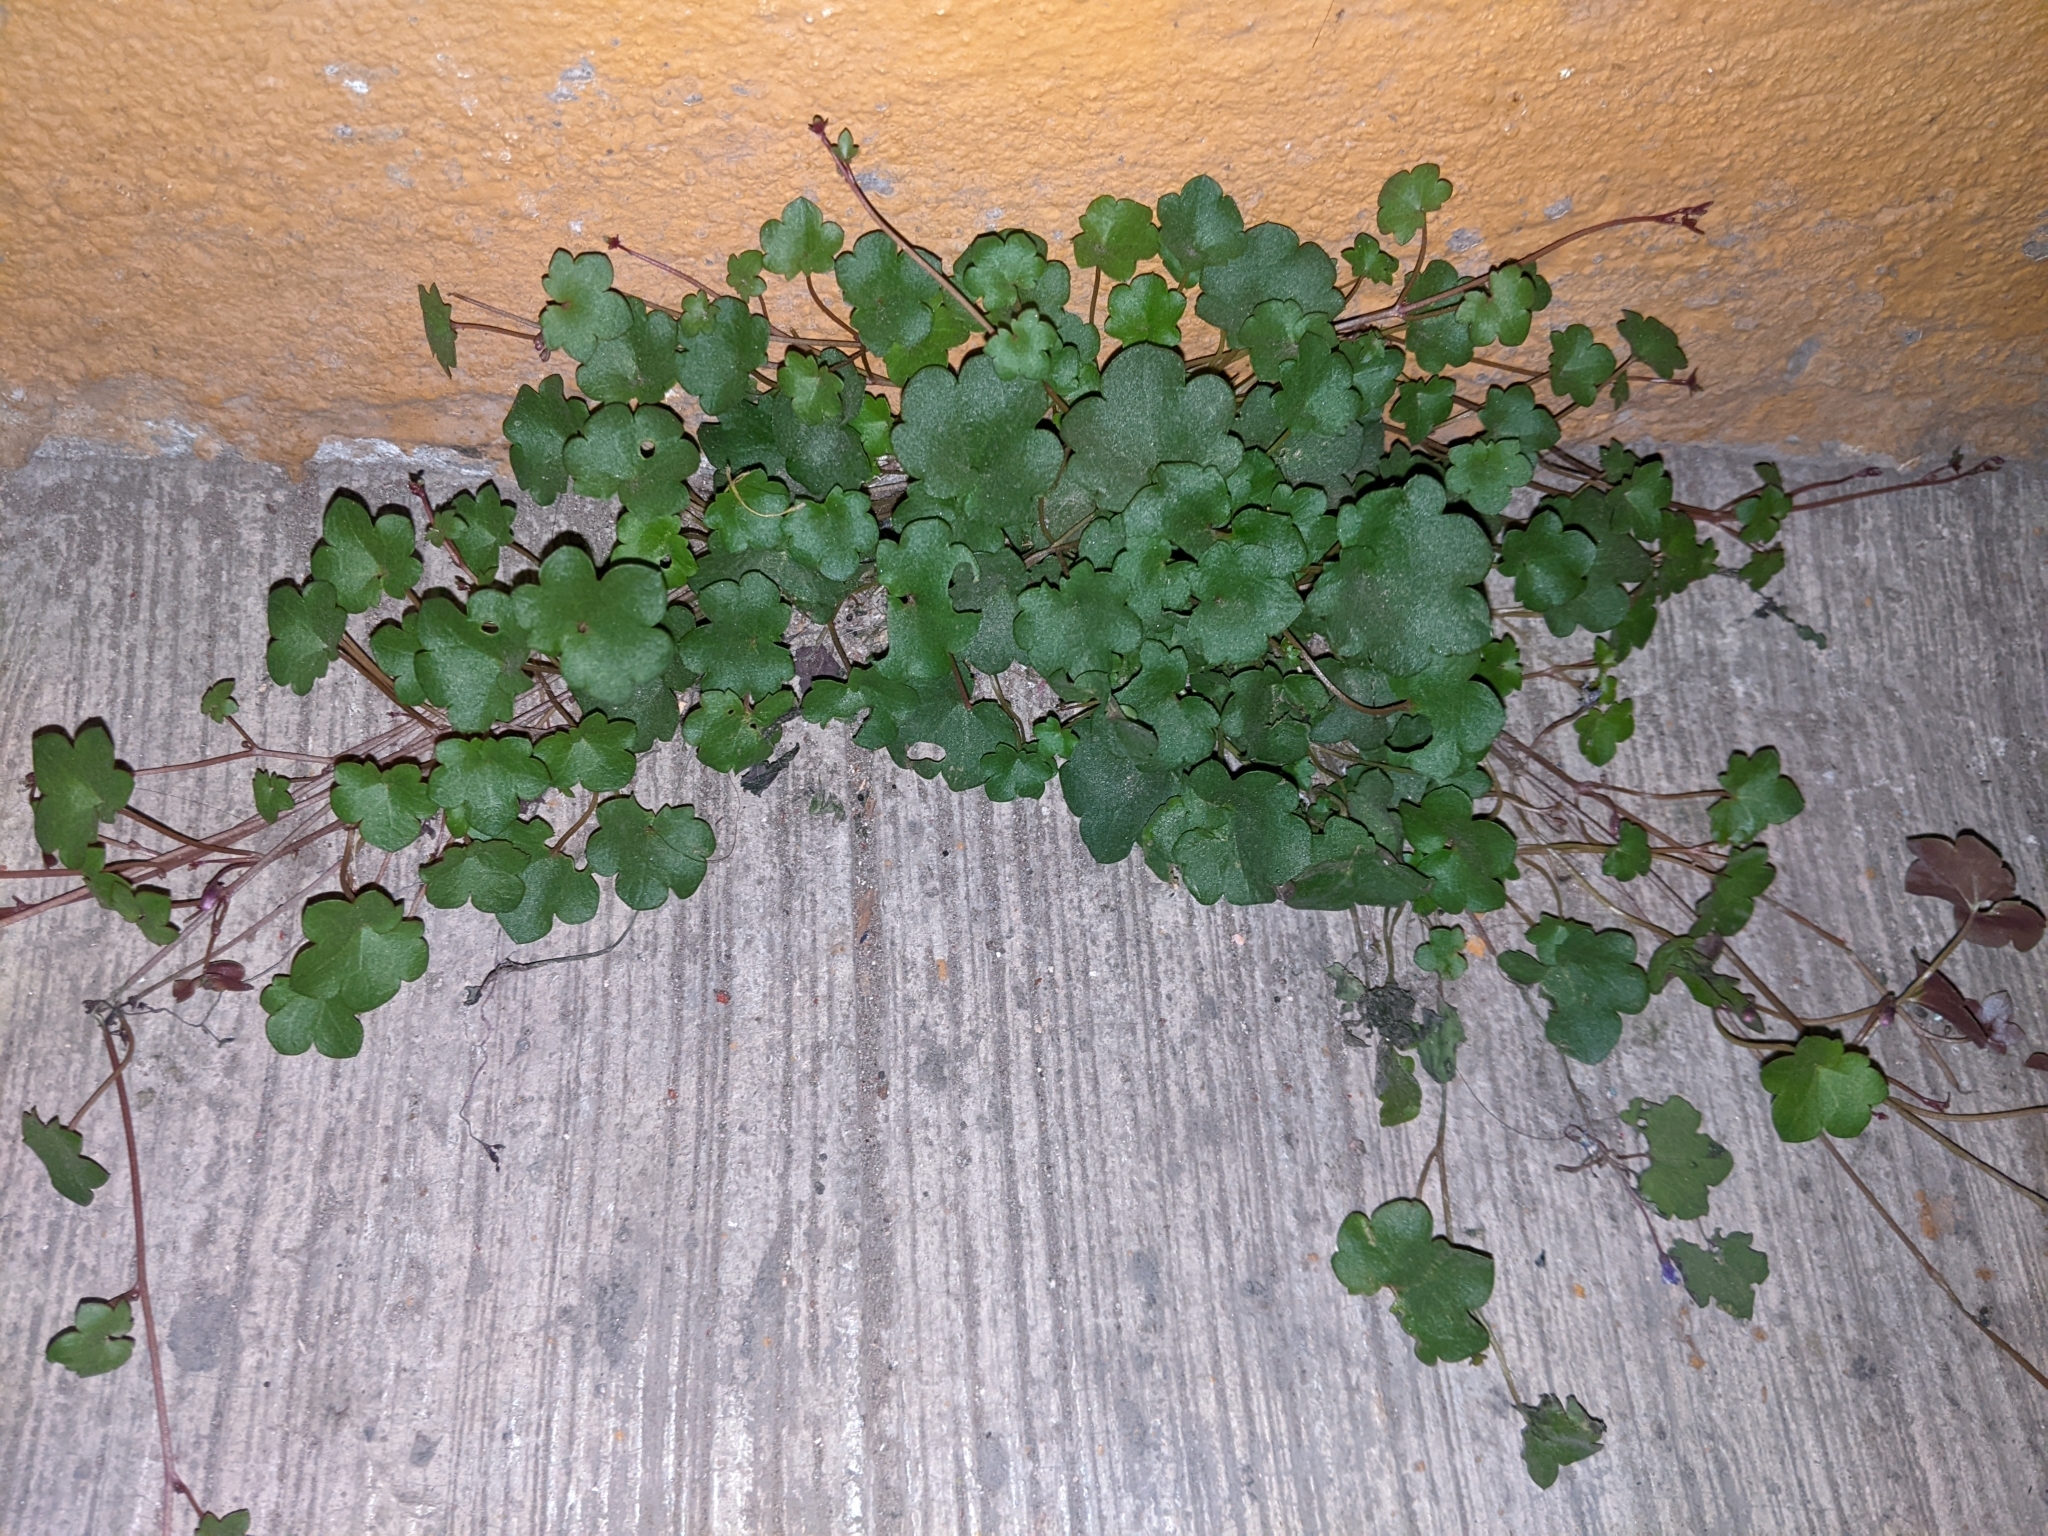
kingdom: Plantae
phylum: Tracheophyta
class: Magnoliopsida
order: Lamiales
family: Plantaginaceae
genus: Cymbalaria
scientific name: Cymbalaria muralis
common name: Ivy-leaved toadflax
